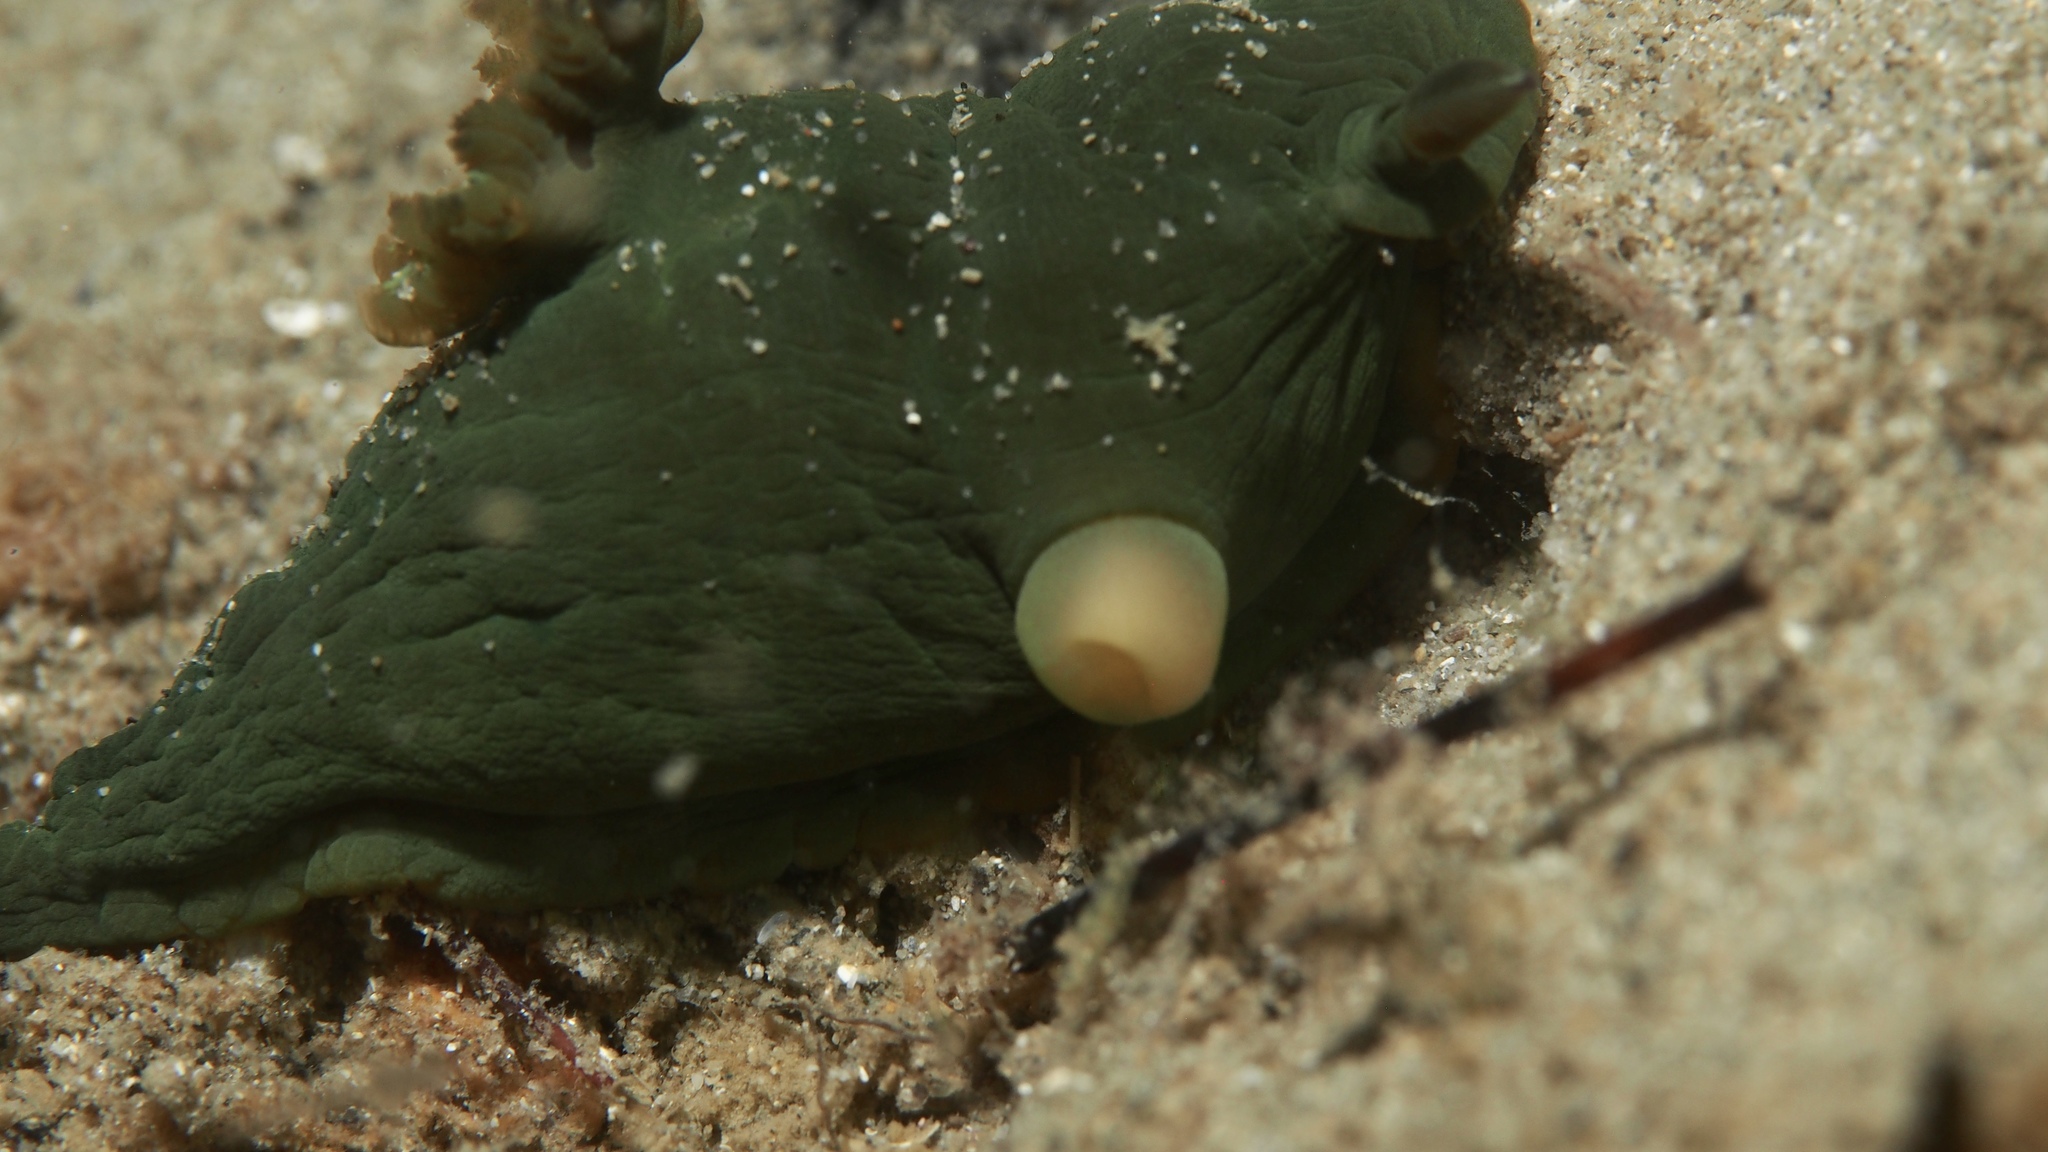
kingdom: Animalia
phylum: Mollusca
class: Gastropoda
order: Nudibranchia
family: Polyceridae
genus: Tambja
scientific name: Tambja dracomus
